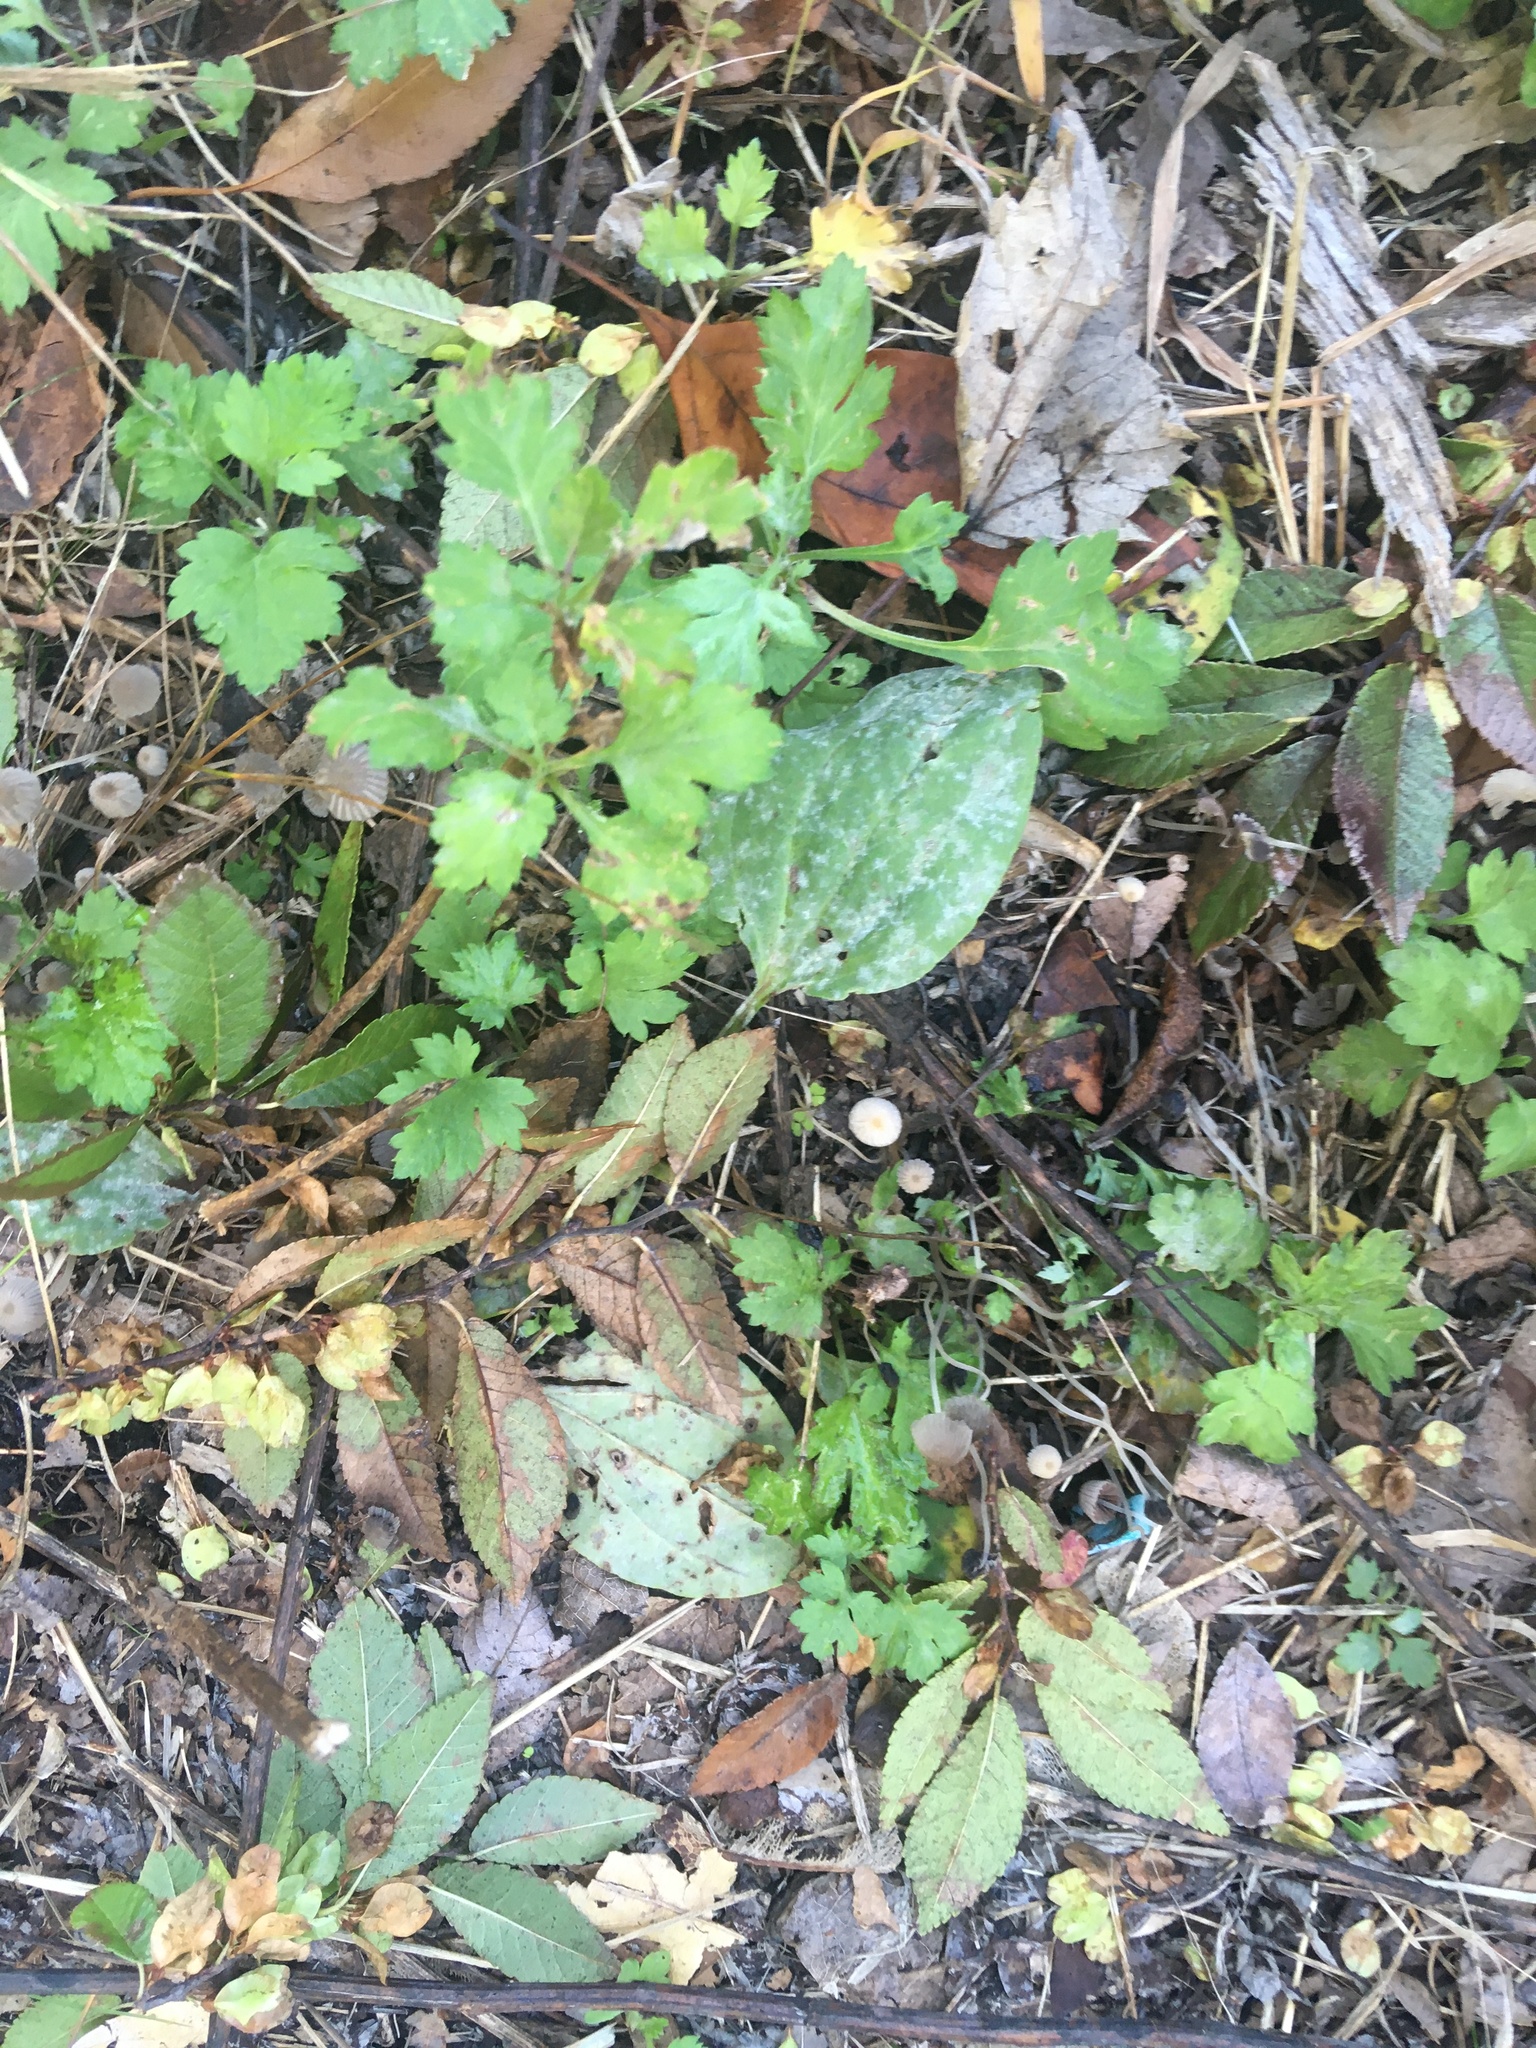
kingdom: Plantae
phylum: Tracheophyta
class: Magnoliopsida
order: Asterales
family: Asteraceae
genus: Artemisia
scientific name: Artemisia vulgaris
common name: Mugwort
